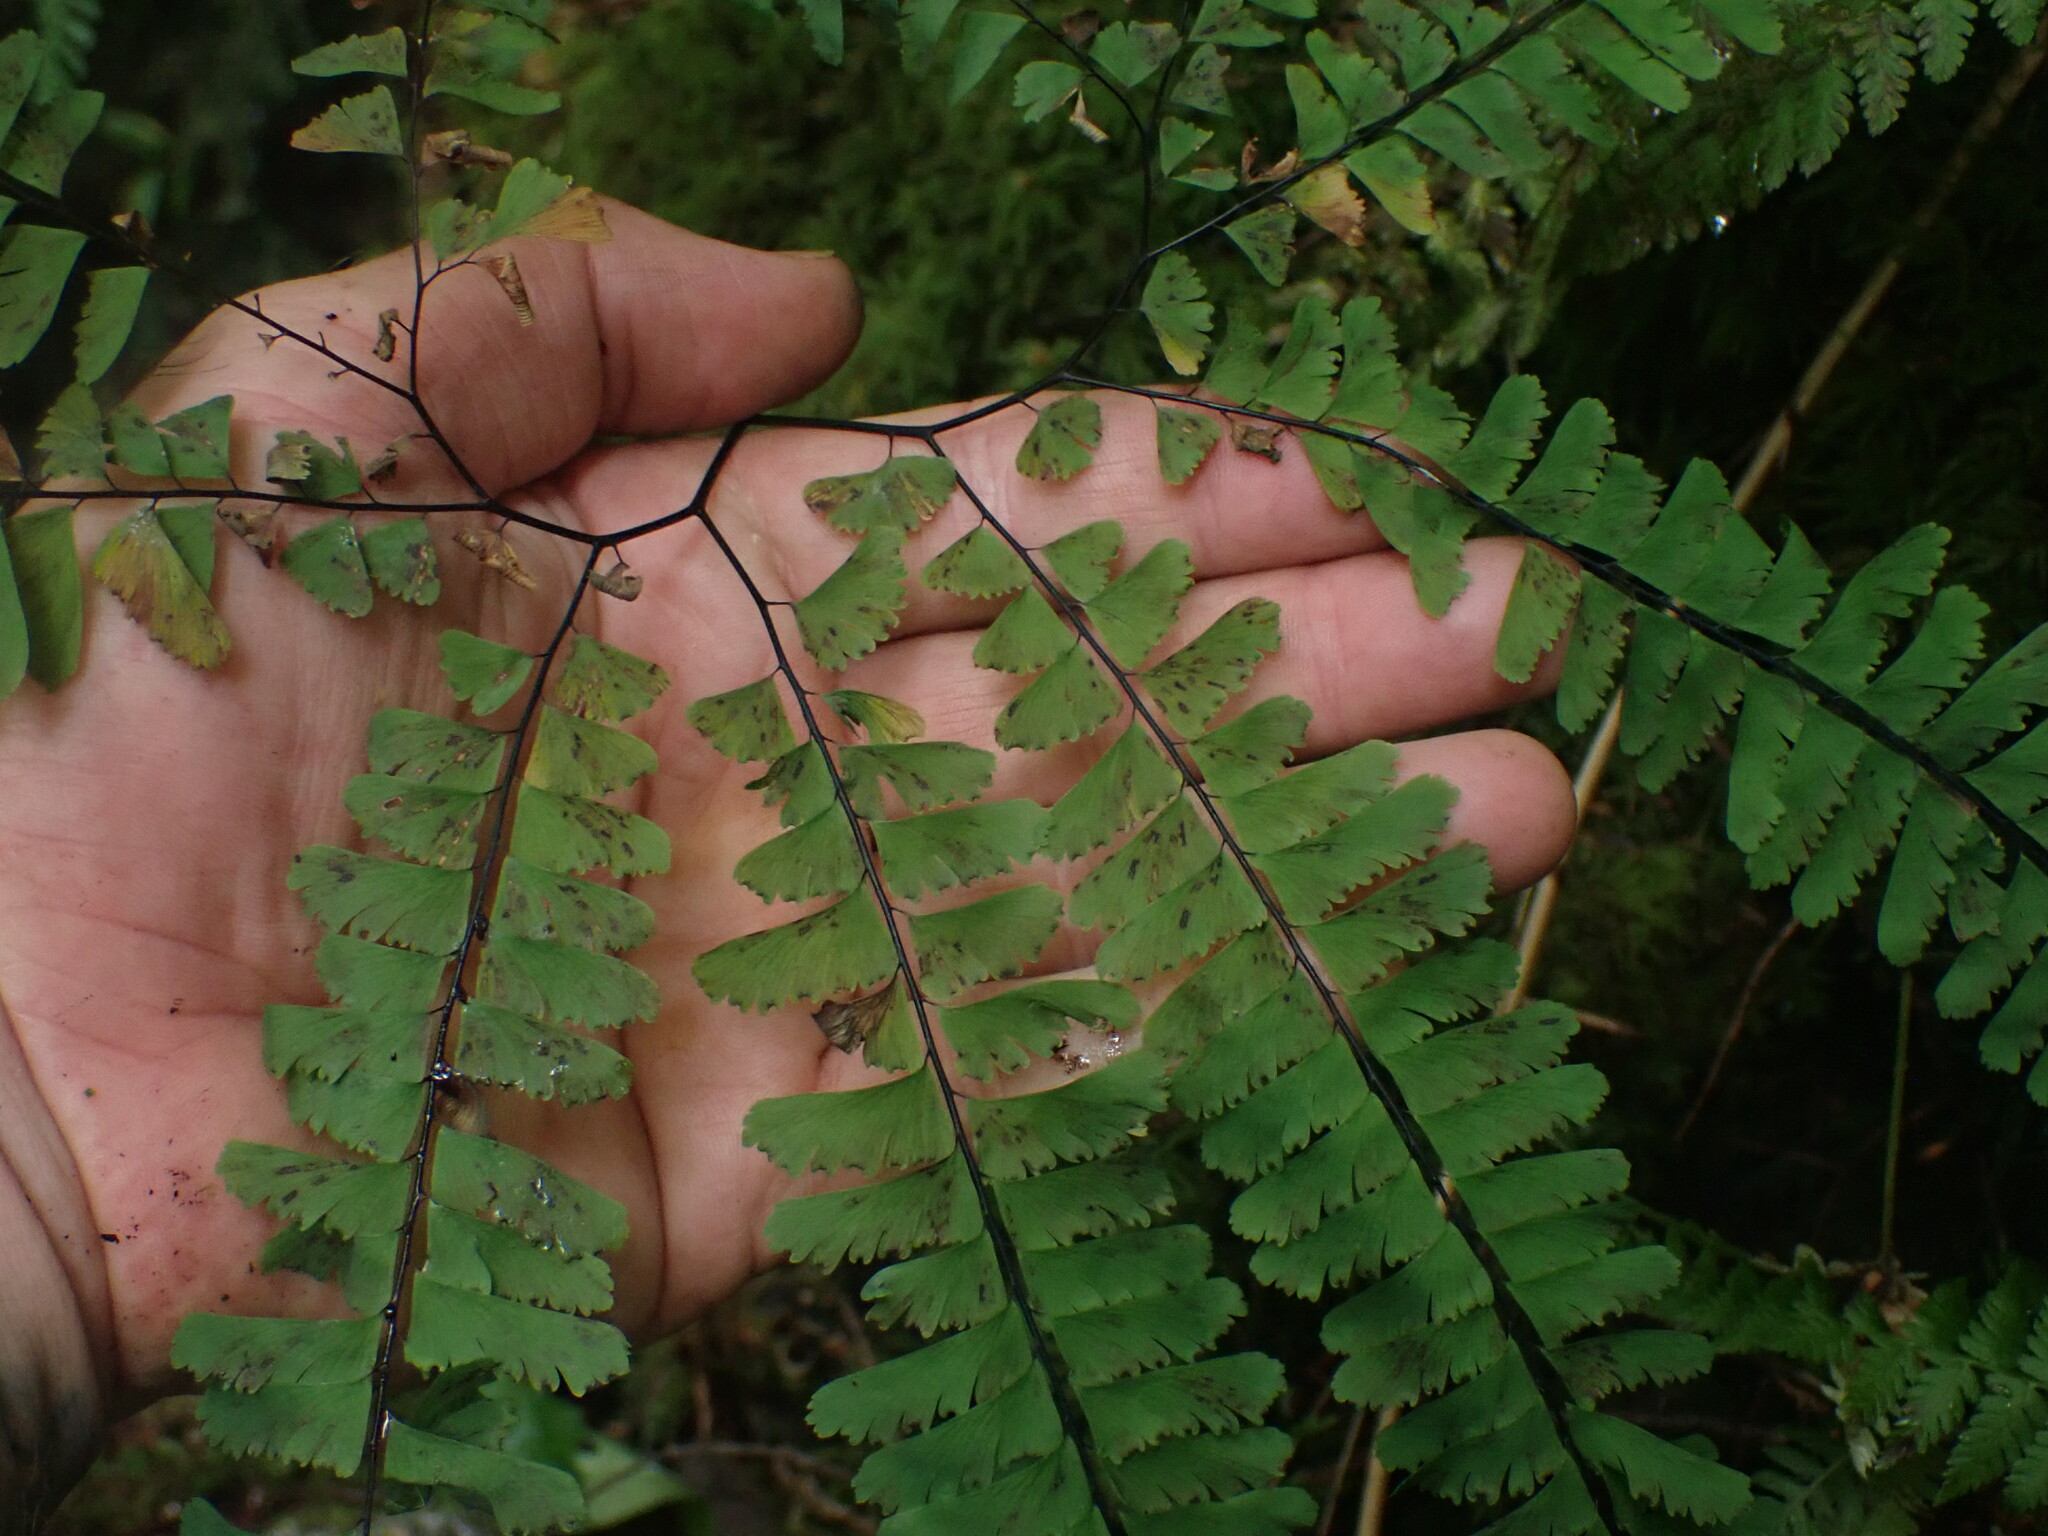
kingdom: Plantae
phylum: Tracheophyta
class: Polypodiopsida
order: Polypodiales
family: Pteridaceae
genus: Adiantum
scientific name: Adiantum aleuticum
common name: Aleutian maidenhair fern
